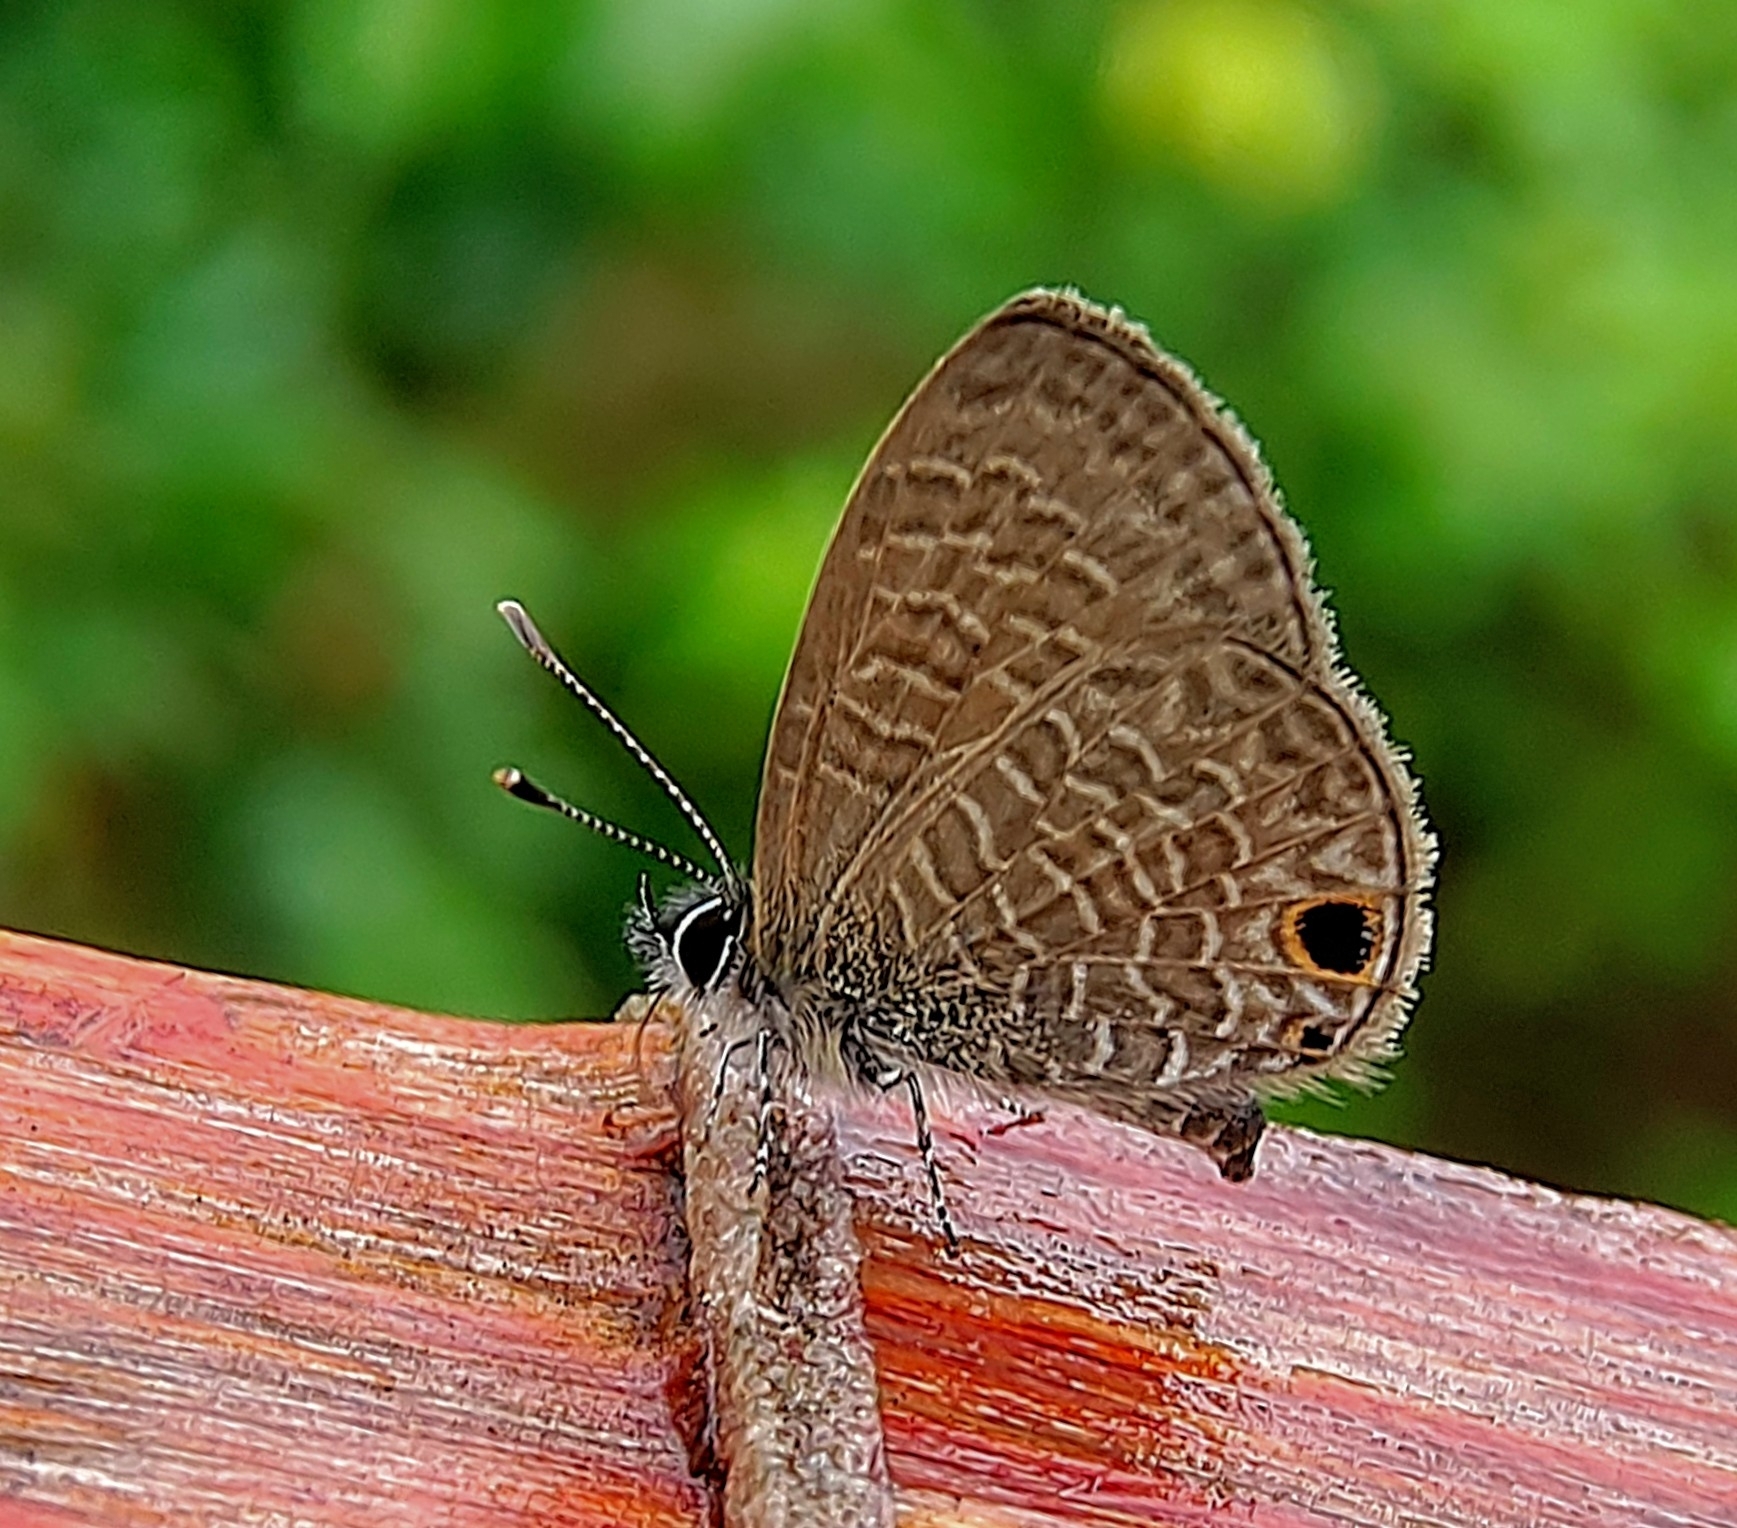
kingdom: Animalia
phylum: Arthropoda
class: Insecta
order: Lepidoptera
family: Lycaenidae
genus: Prosotas
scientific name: Prosotas dubiosa
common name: Tailless lineblue
